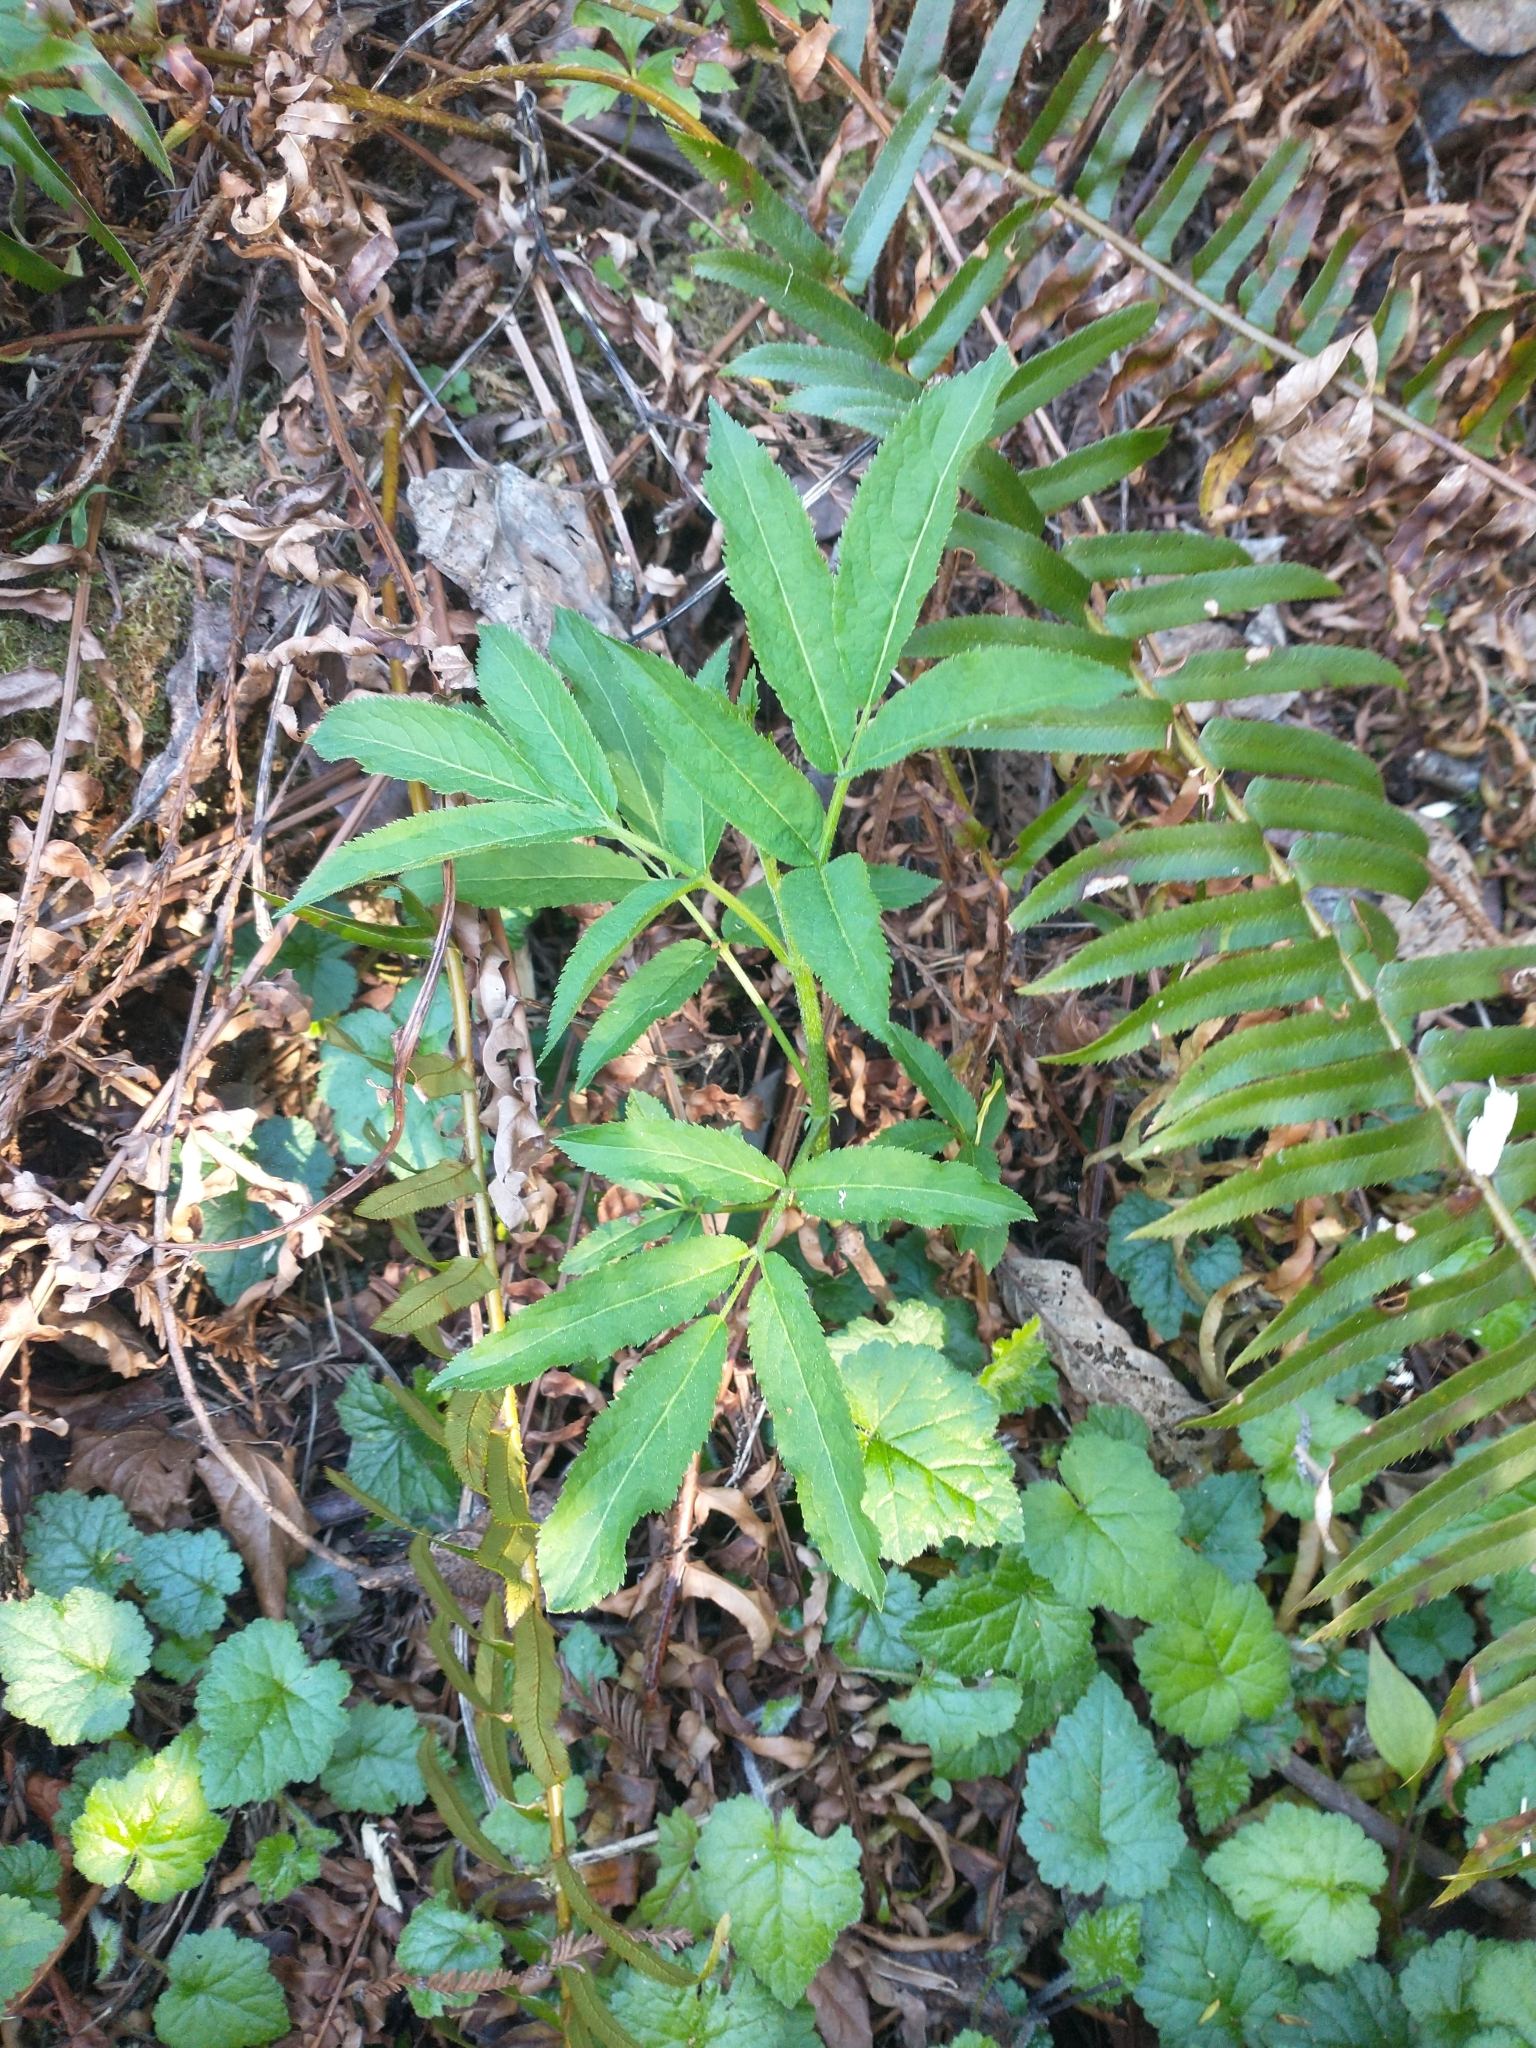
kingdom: Plantae
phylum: Tracheophyta
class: Magnoliopsida
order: Dipsacales
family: Viburnaceae
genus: Sambucus
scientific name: Sambucus racemosa
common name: Red-berried elder
